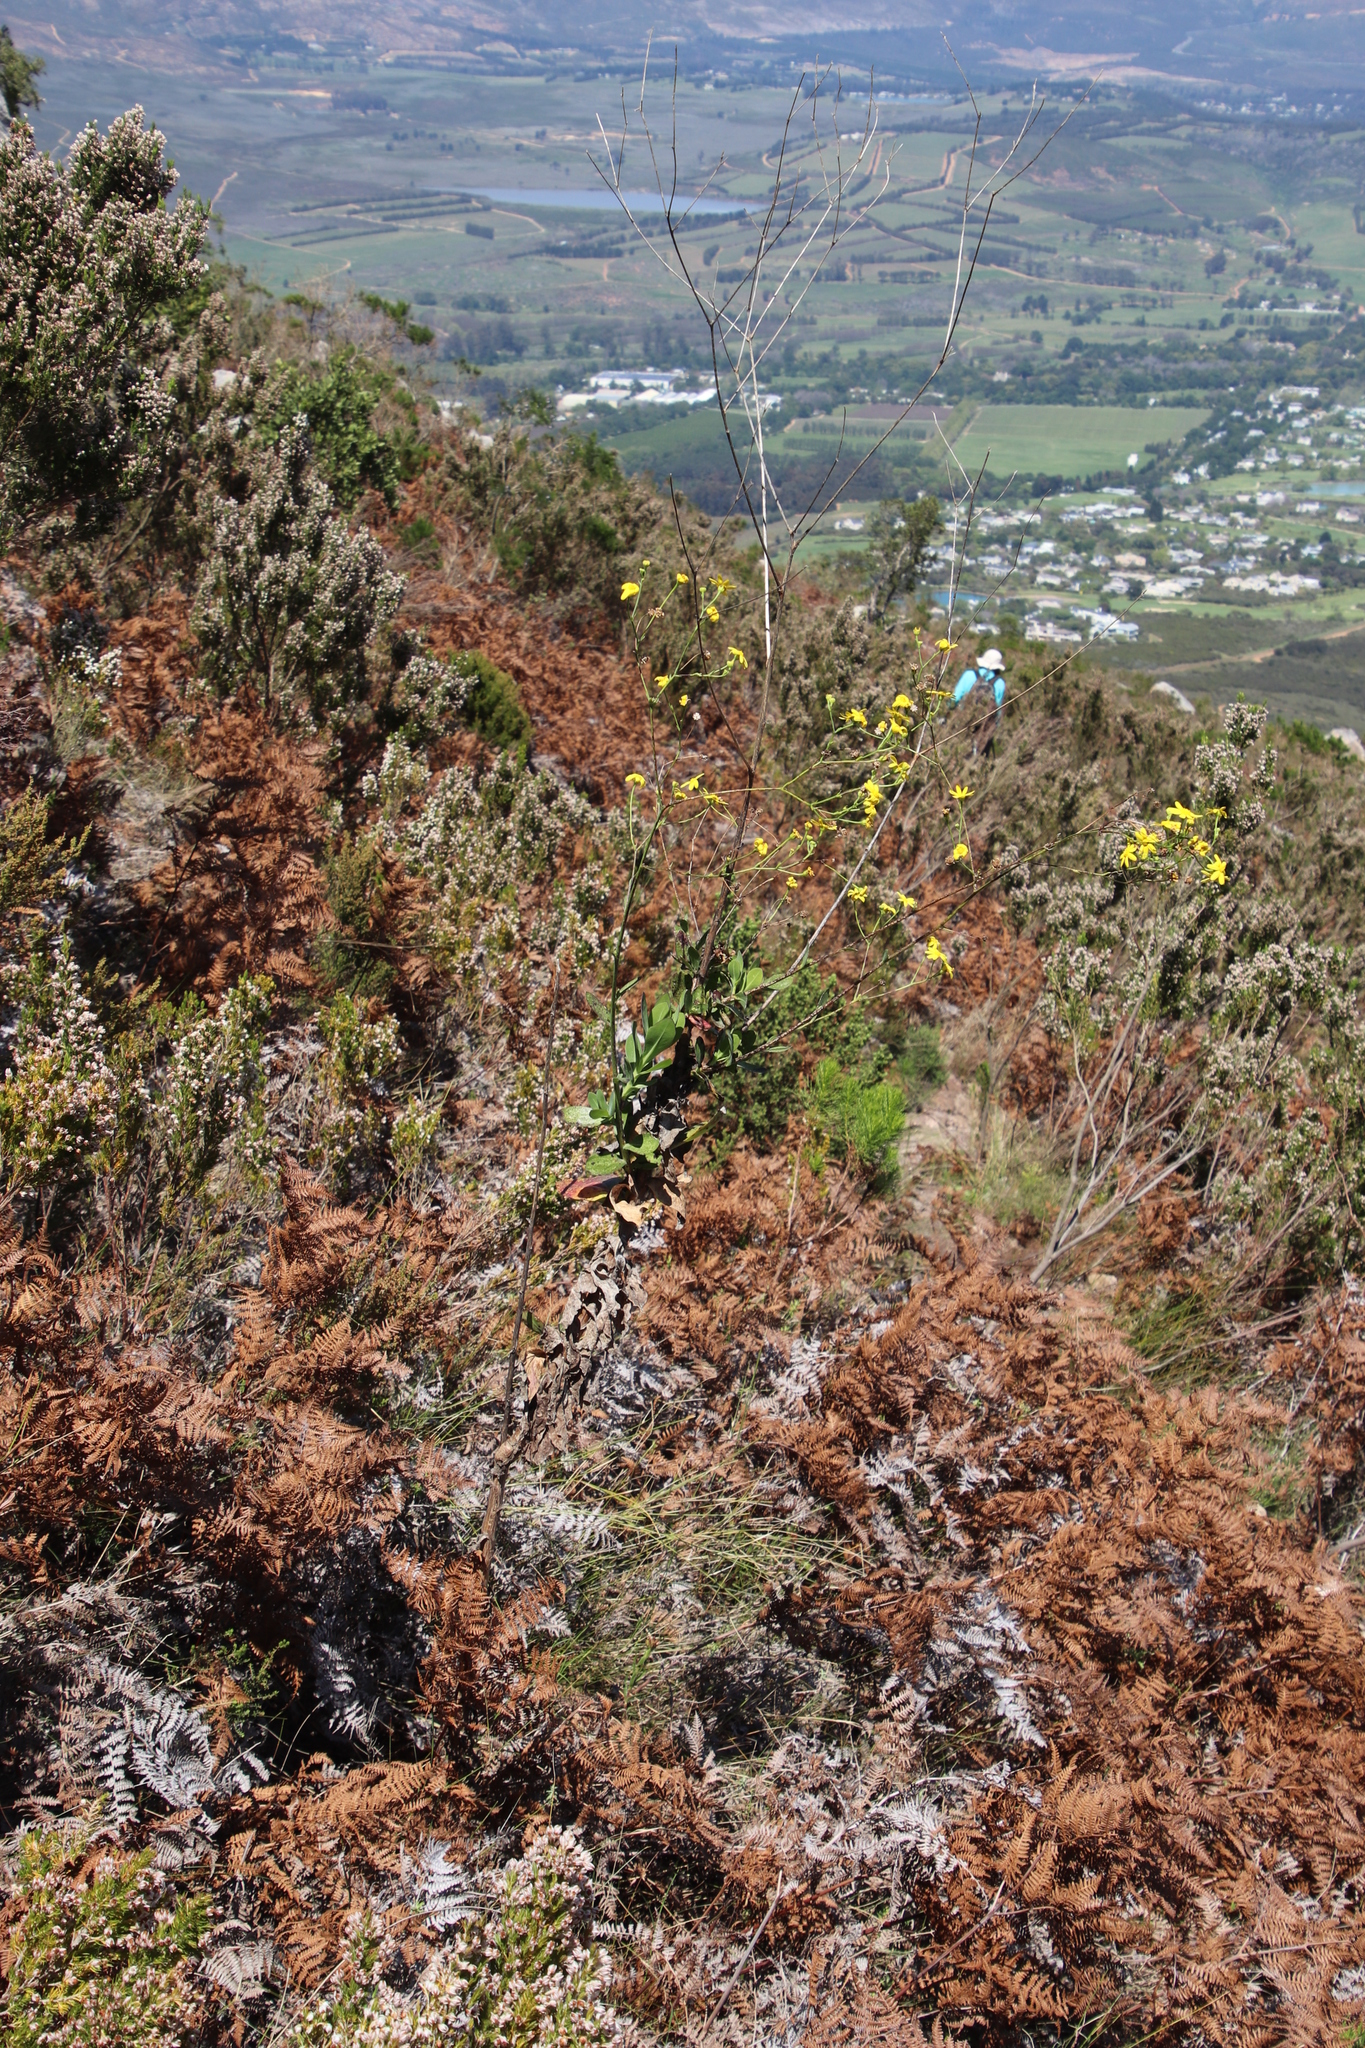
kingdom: Plantae
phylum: Tracheophyta
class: Magnoliopsida
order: Asterales
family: Asteraceae
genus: Othonna
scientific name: Othonna quinquedentata
